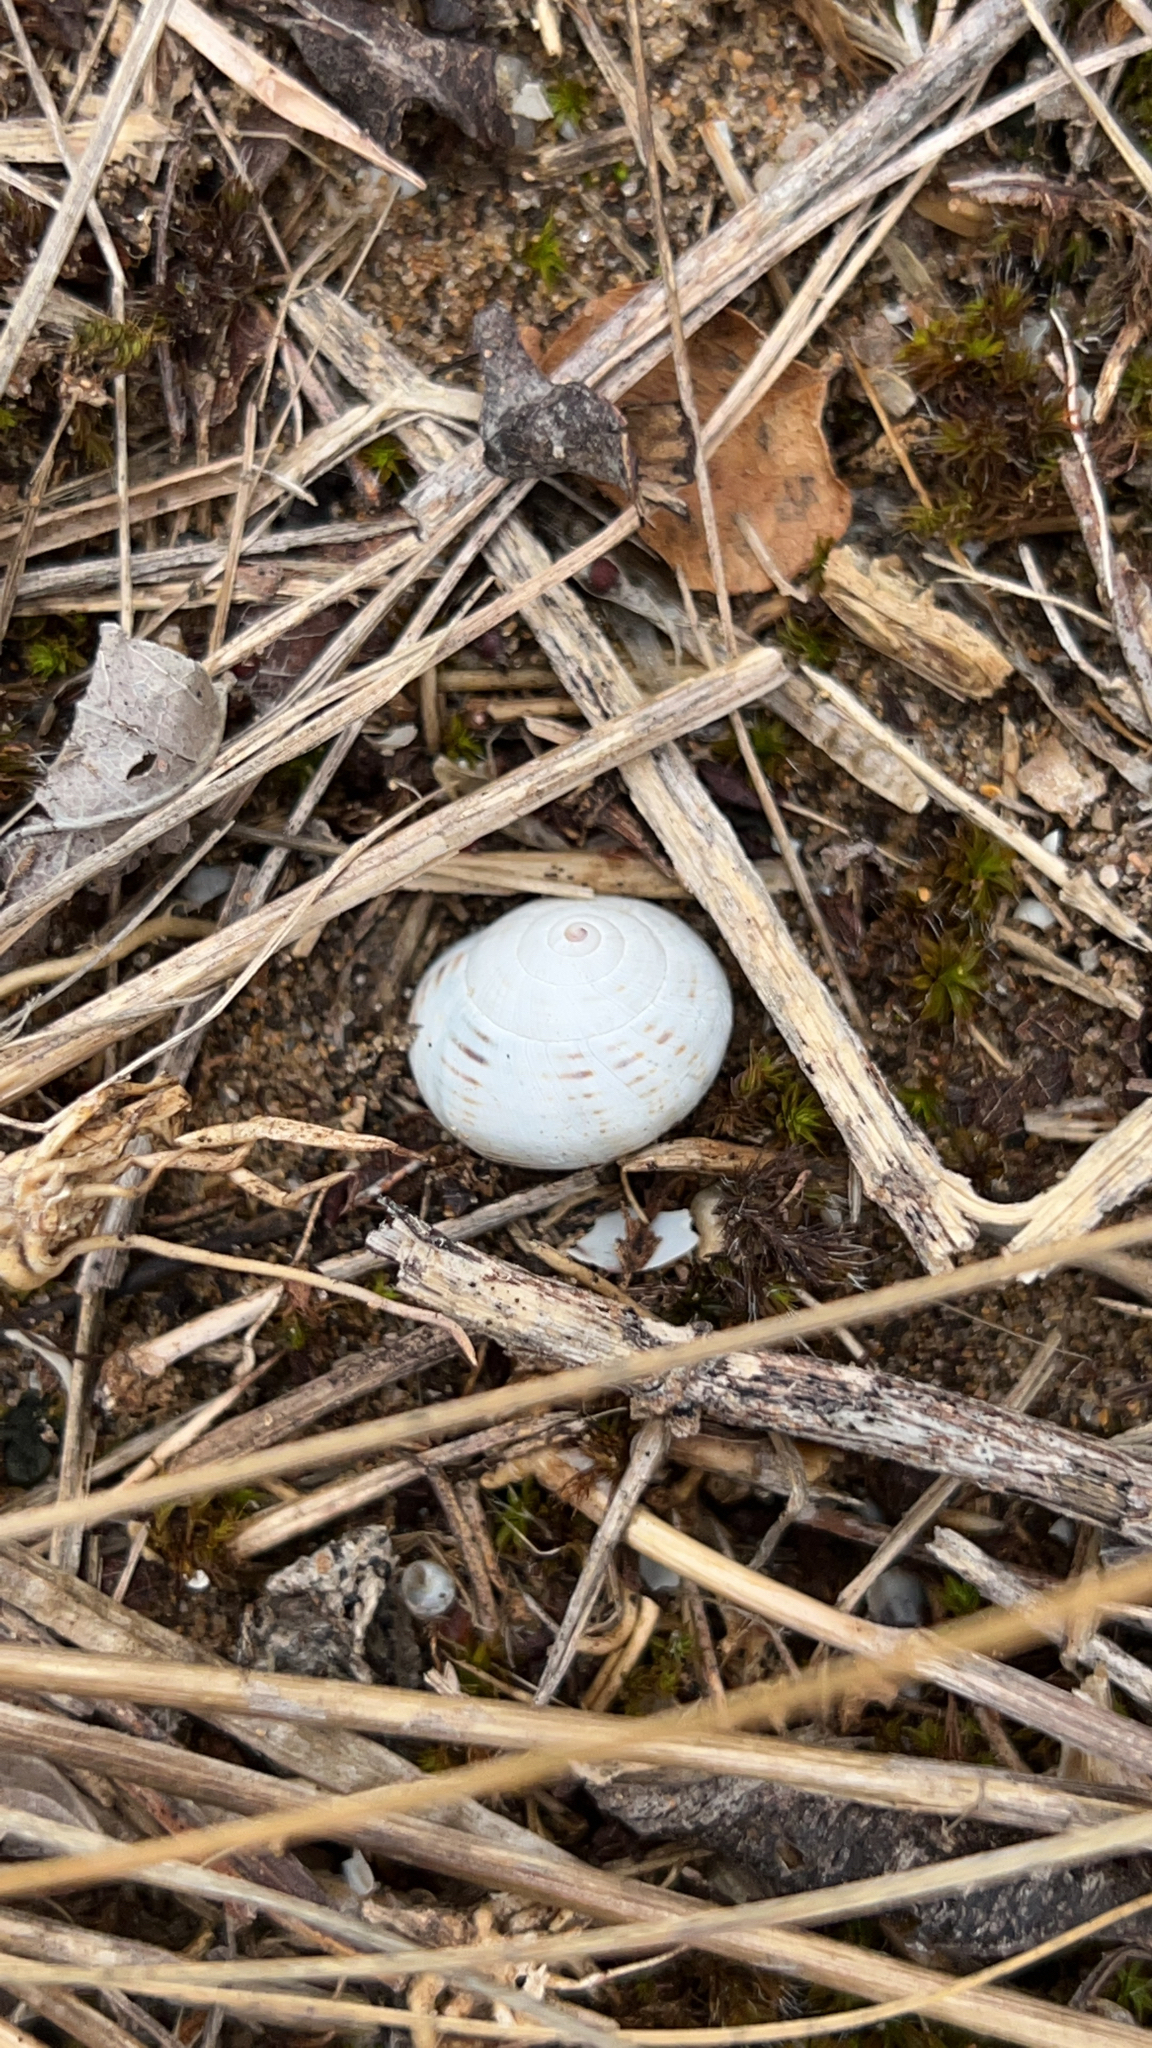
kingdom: Animalia
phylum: Mollusca
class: Gastropoda
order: Stylommatophora
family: Helicidae
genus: Theba
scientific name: Theba pisana
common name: White snail
